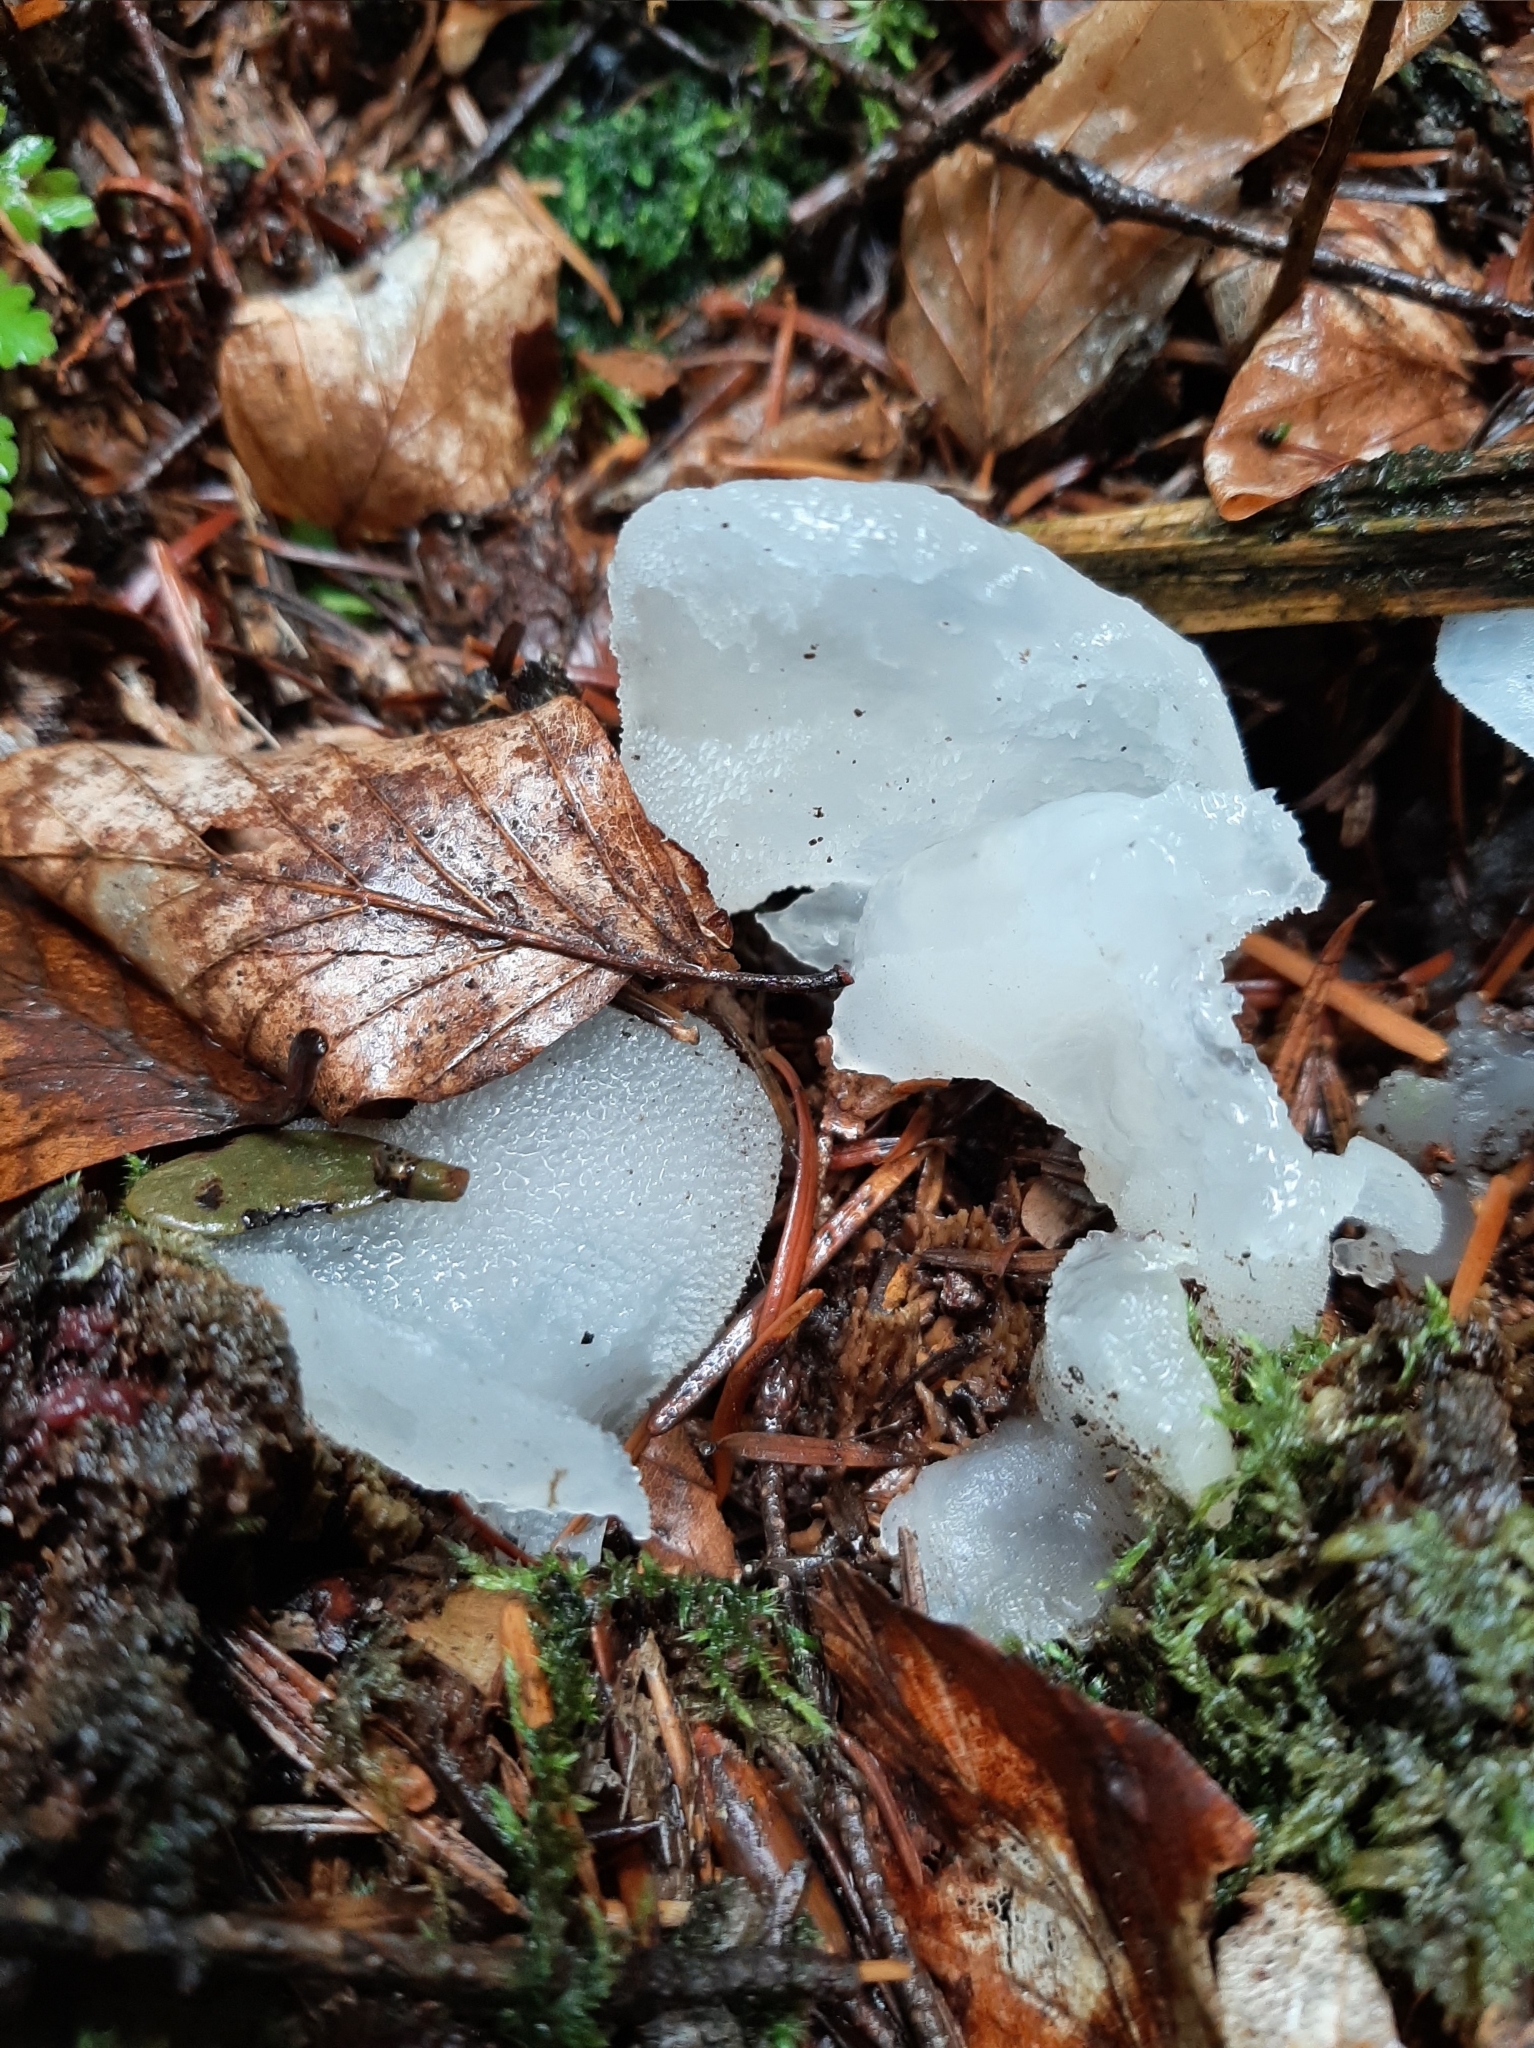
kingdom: Fungi
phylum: Basidiomycota
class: Agaricomycetes
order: Auriculariales
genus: Pseudohydnum
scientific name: Pseudohydnum gelatinosum
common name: Jelly tongue
